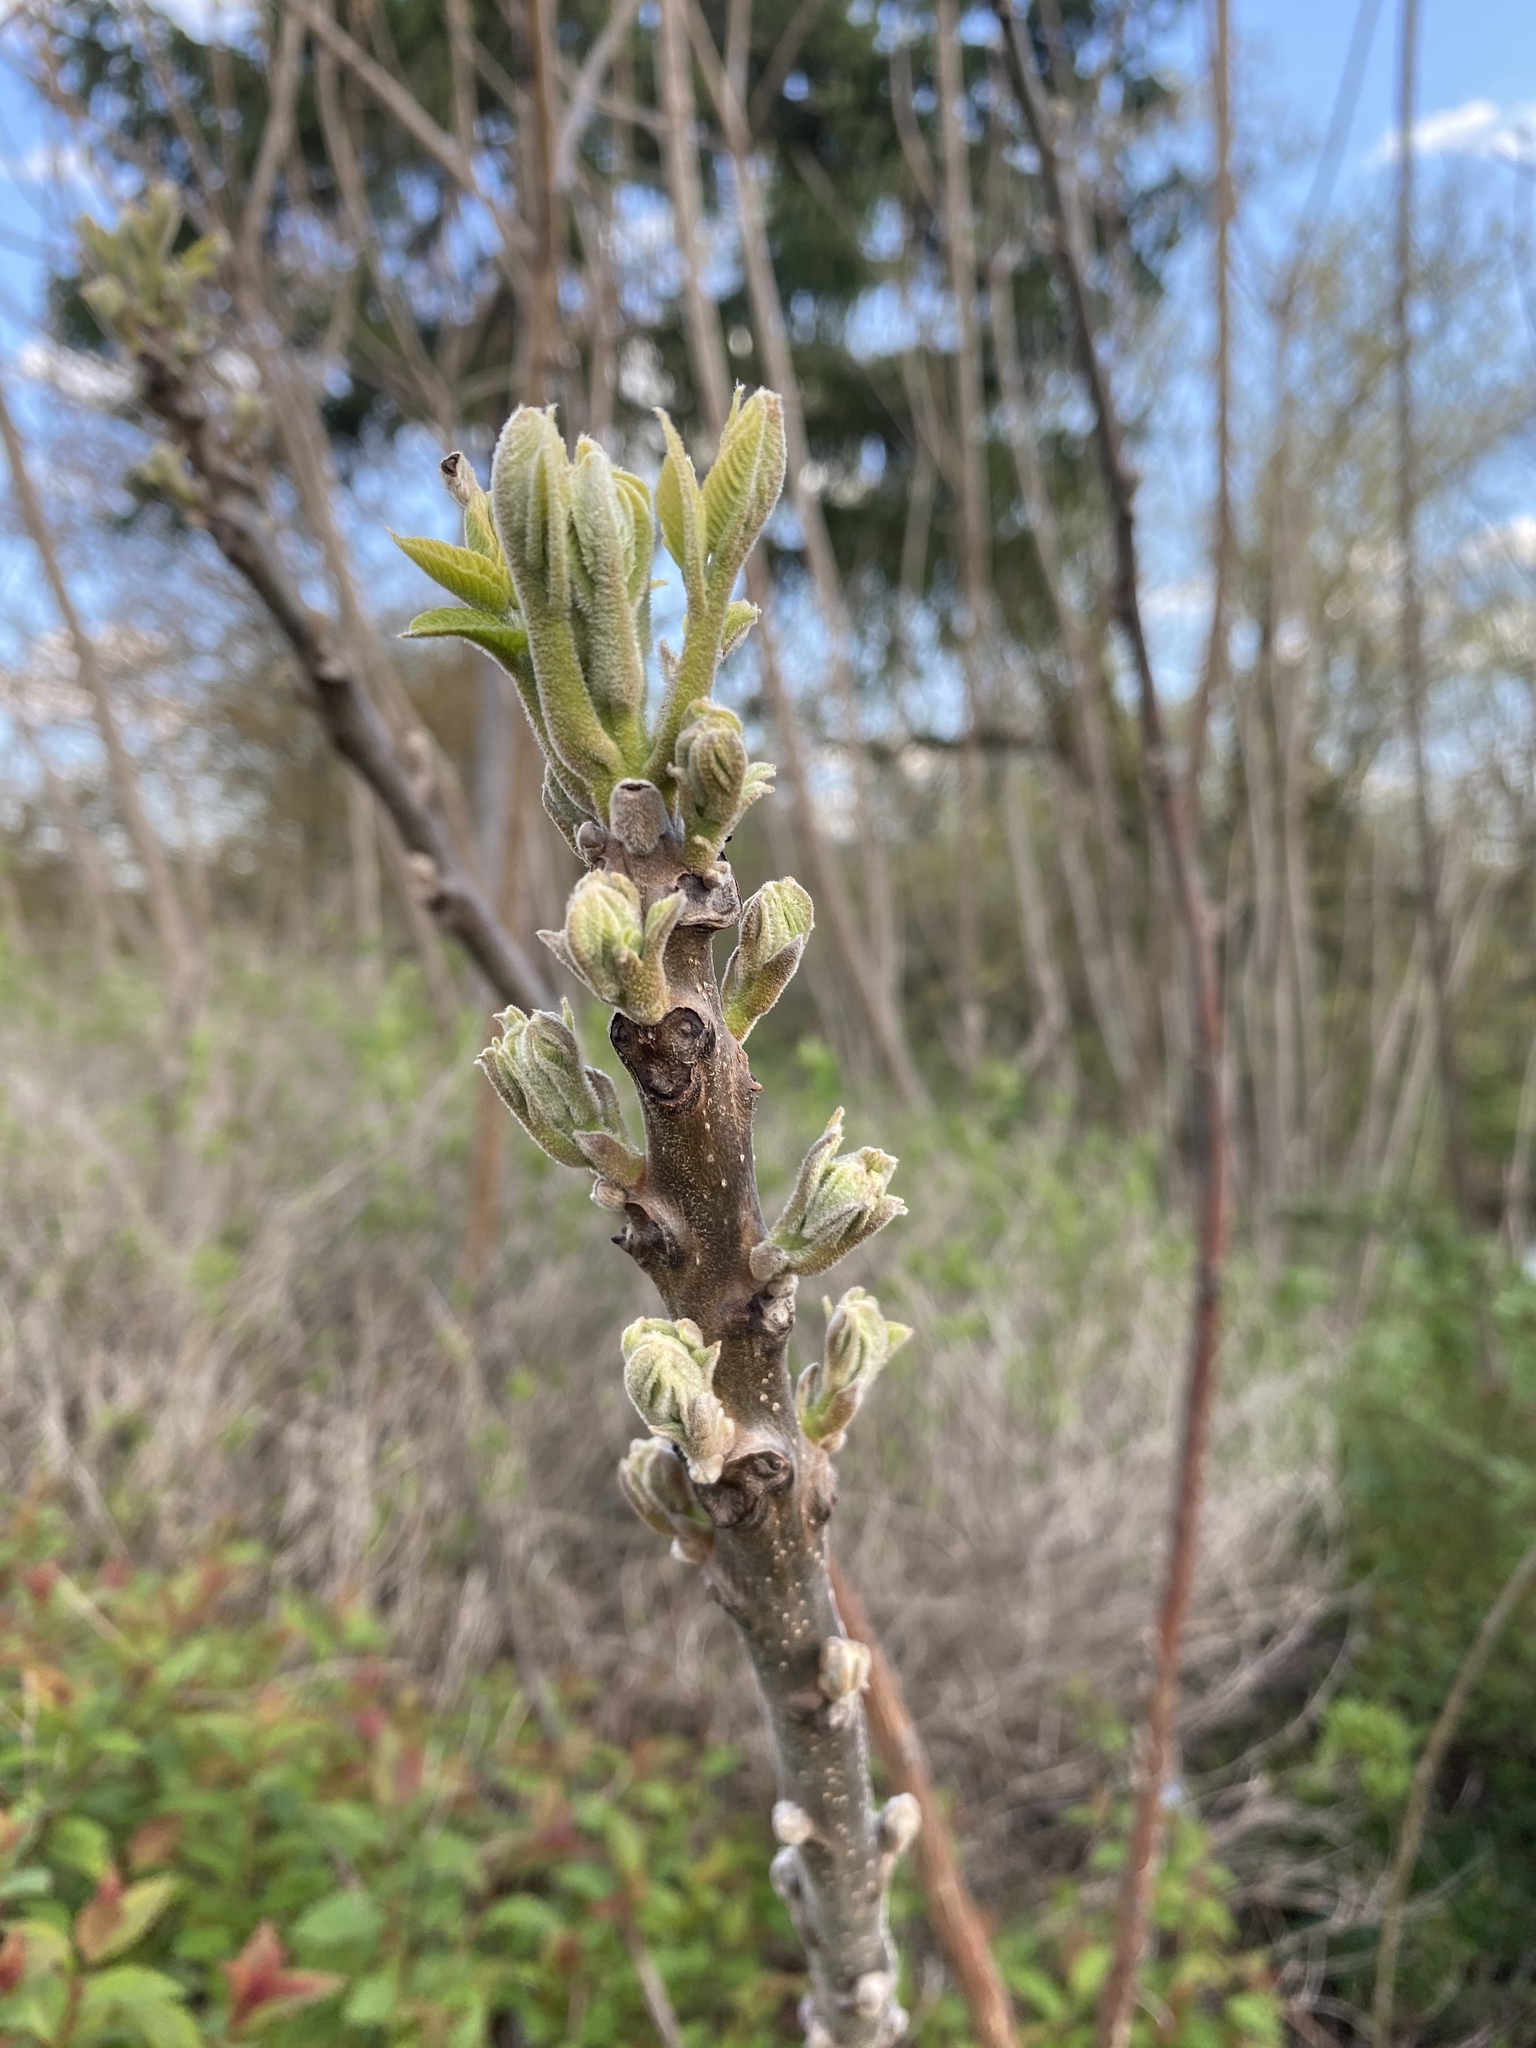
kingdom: Plantae
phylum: Tracheophyta
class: Magnoliopsida
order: Fagales
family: Juglandaceae
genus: Juglans
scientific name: Juglans nigra
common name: Black walnut
